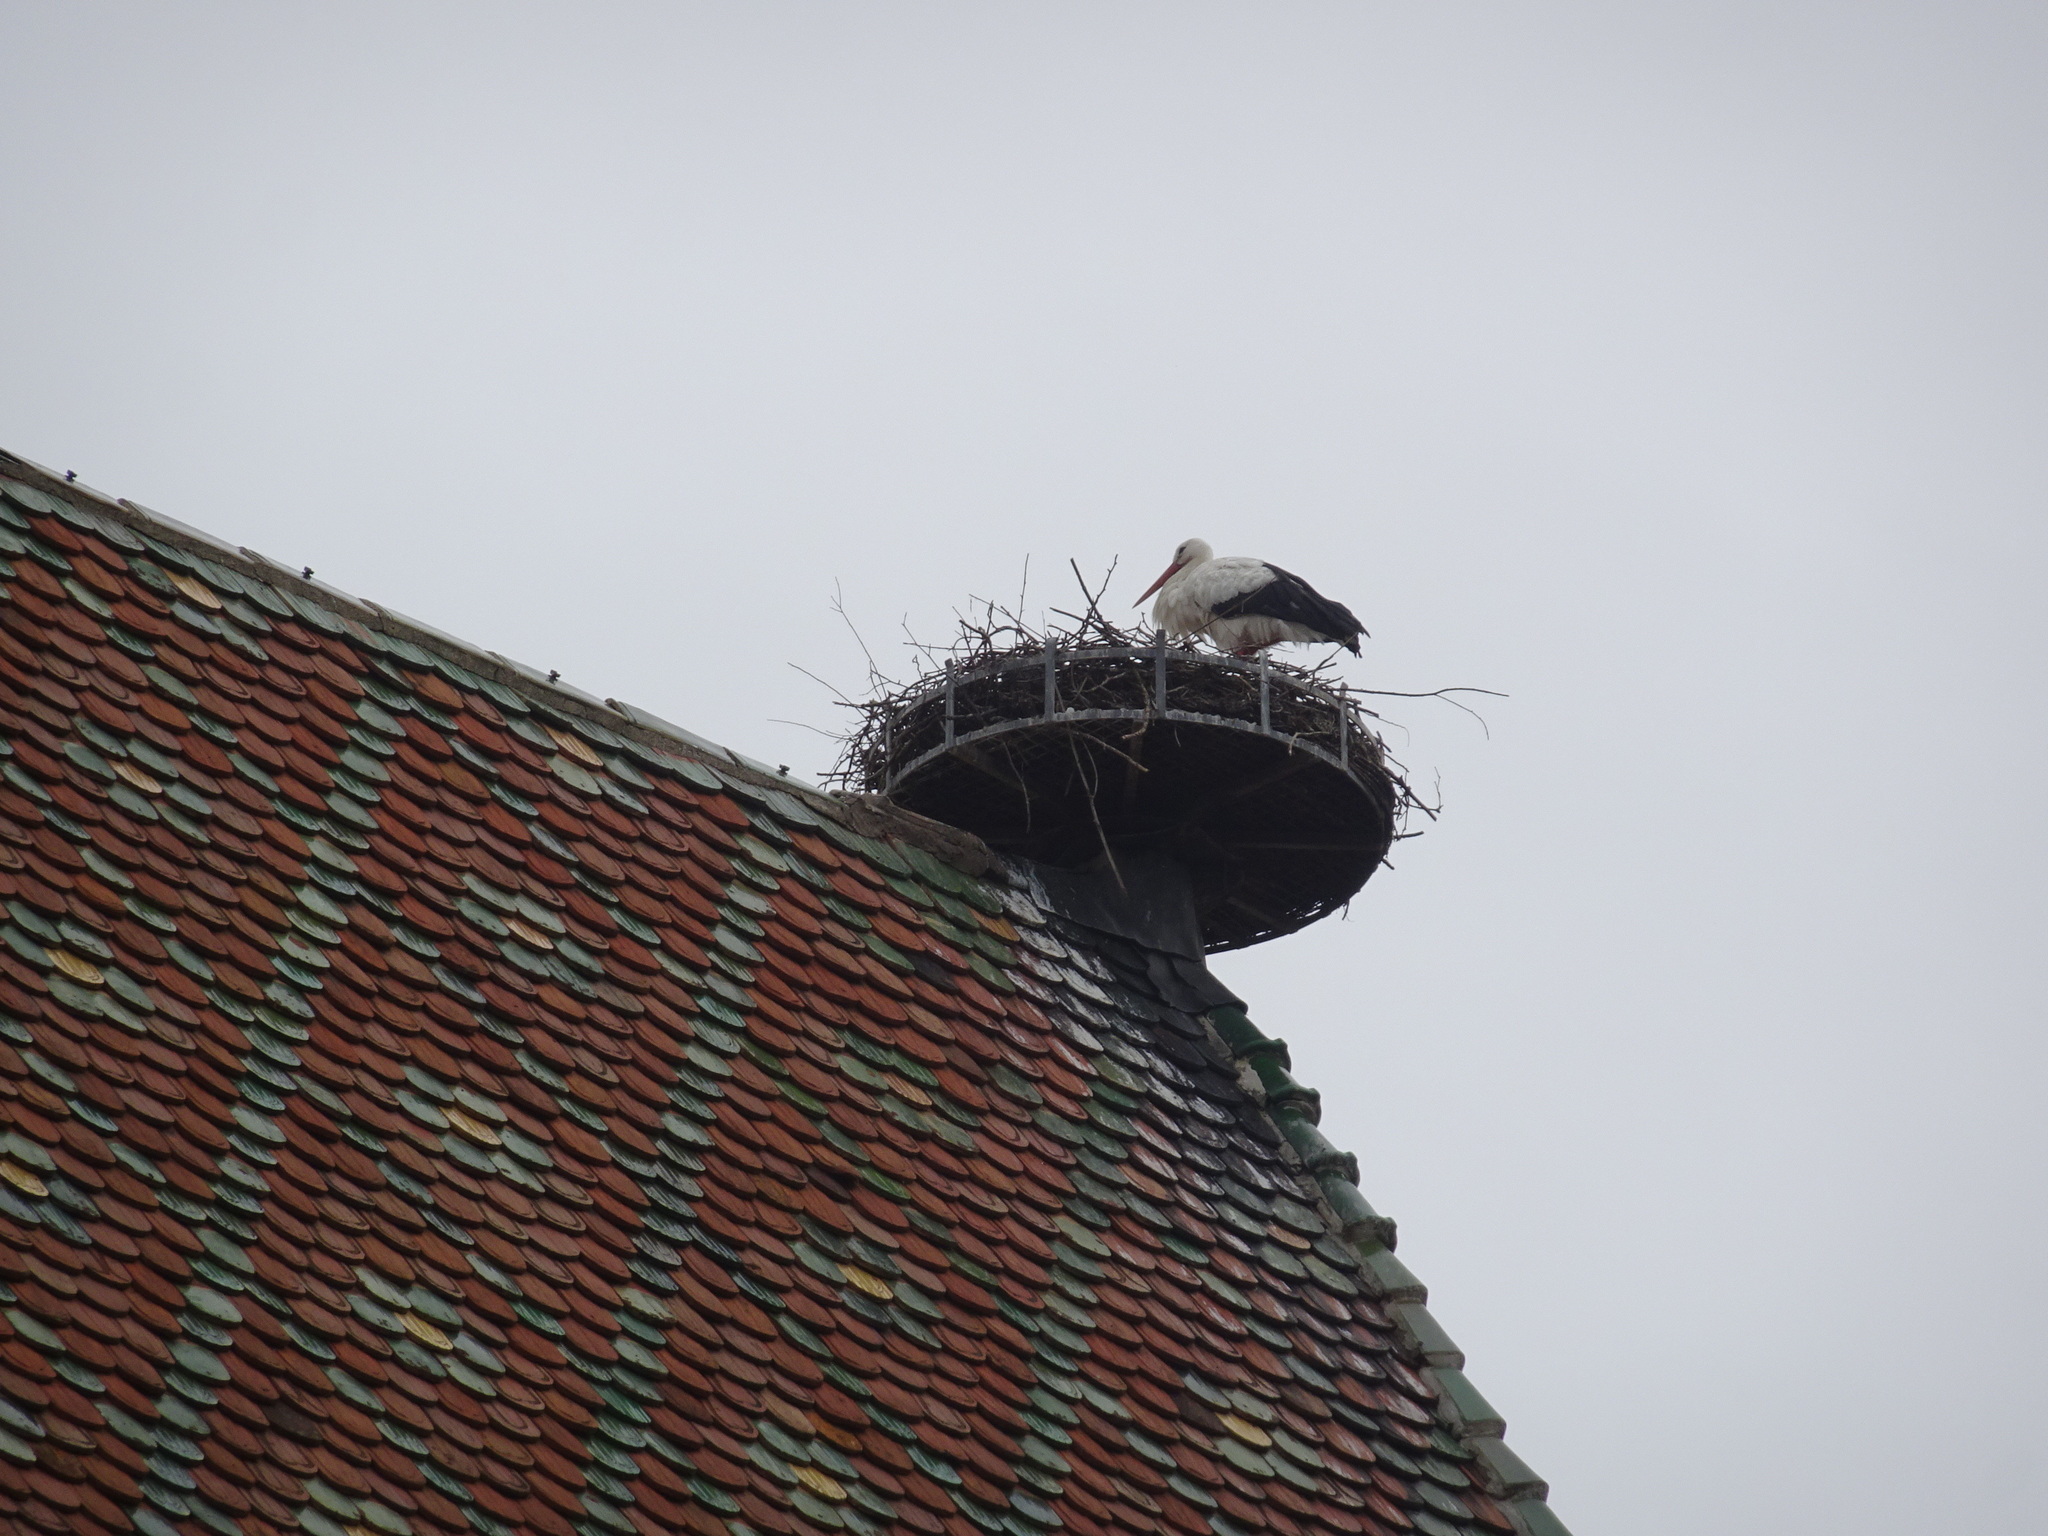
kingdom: Animalia
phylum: Chordata
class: Aves
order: Ciconiiformes
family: Ciconiidae
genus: Ciconia
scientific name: Ciconia ciconia
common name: White stork
